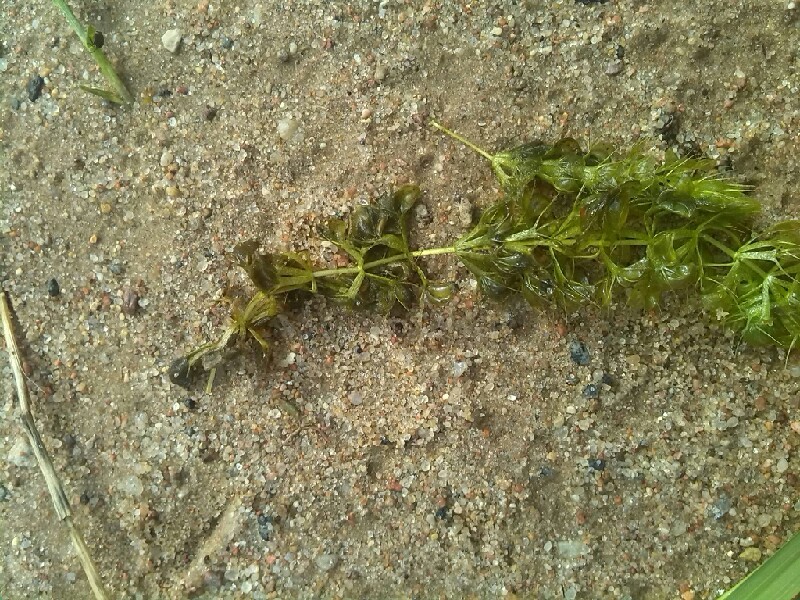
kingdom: Plantae
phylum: Tracheophyta
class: Magnoliopsida
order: Caryophyllales
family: Droseraceae
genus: Aldrovanda
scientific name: Aldrovanda vesiculosa
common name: Waterwheel plant
